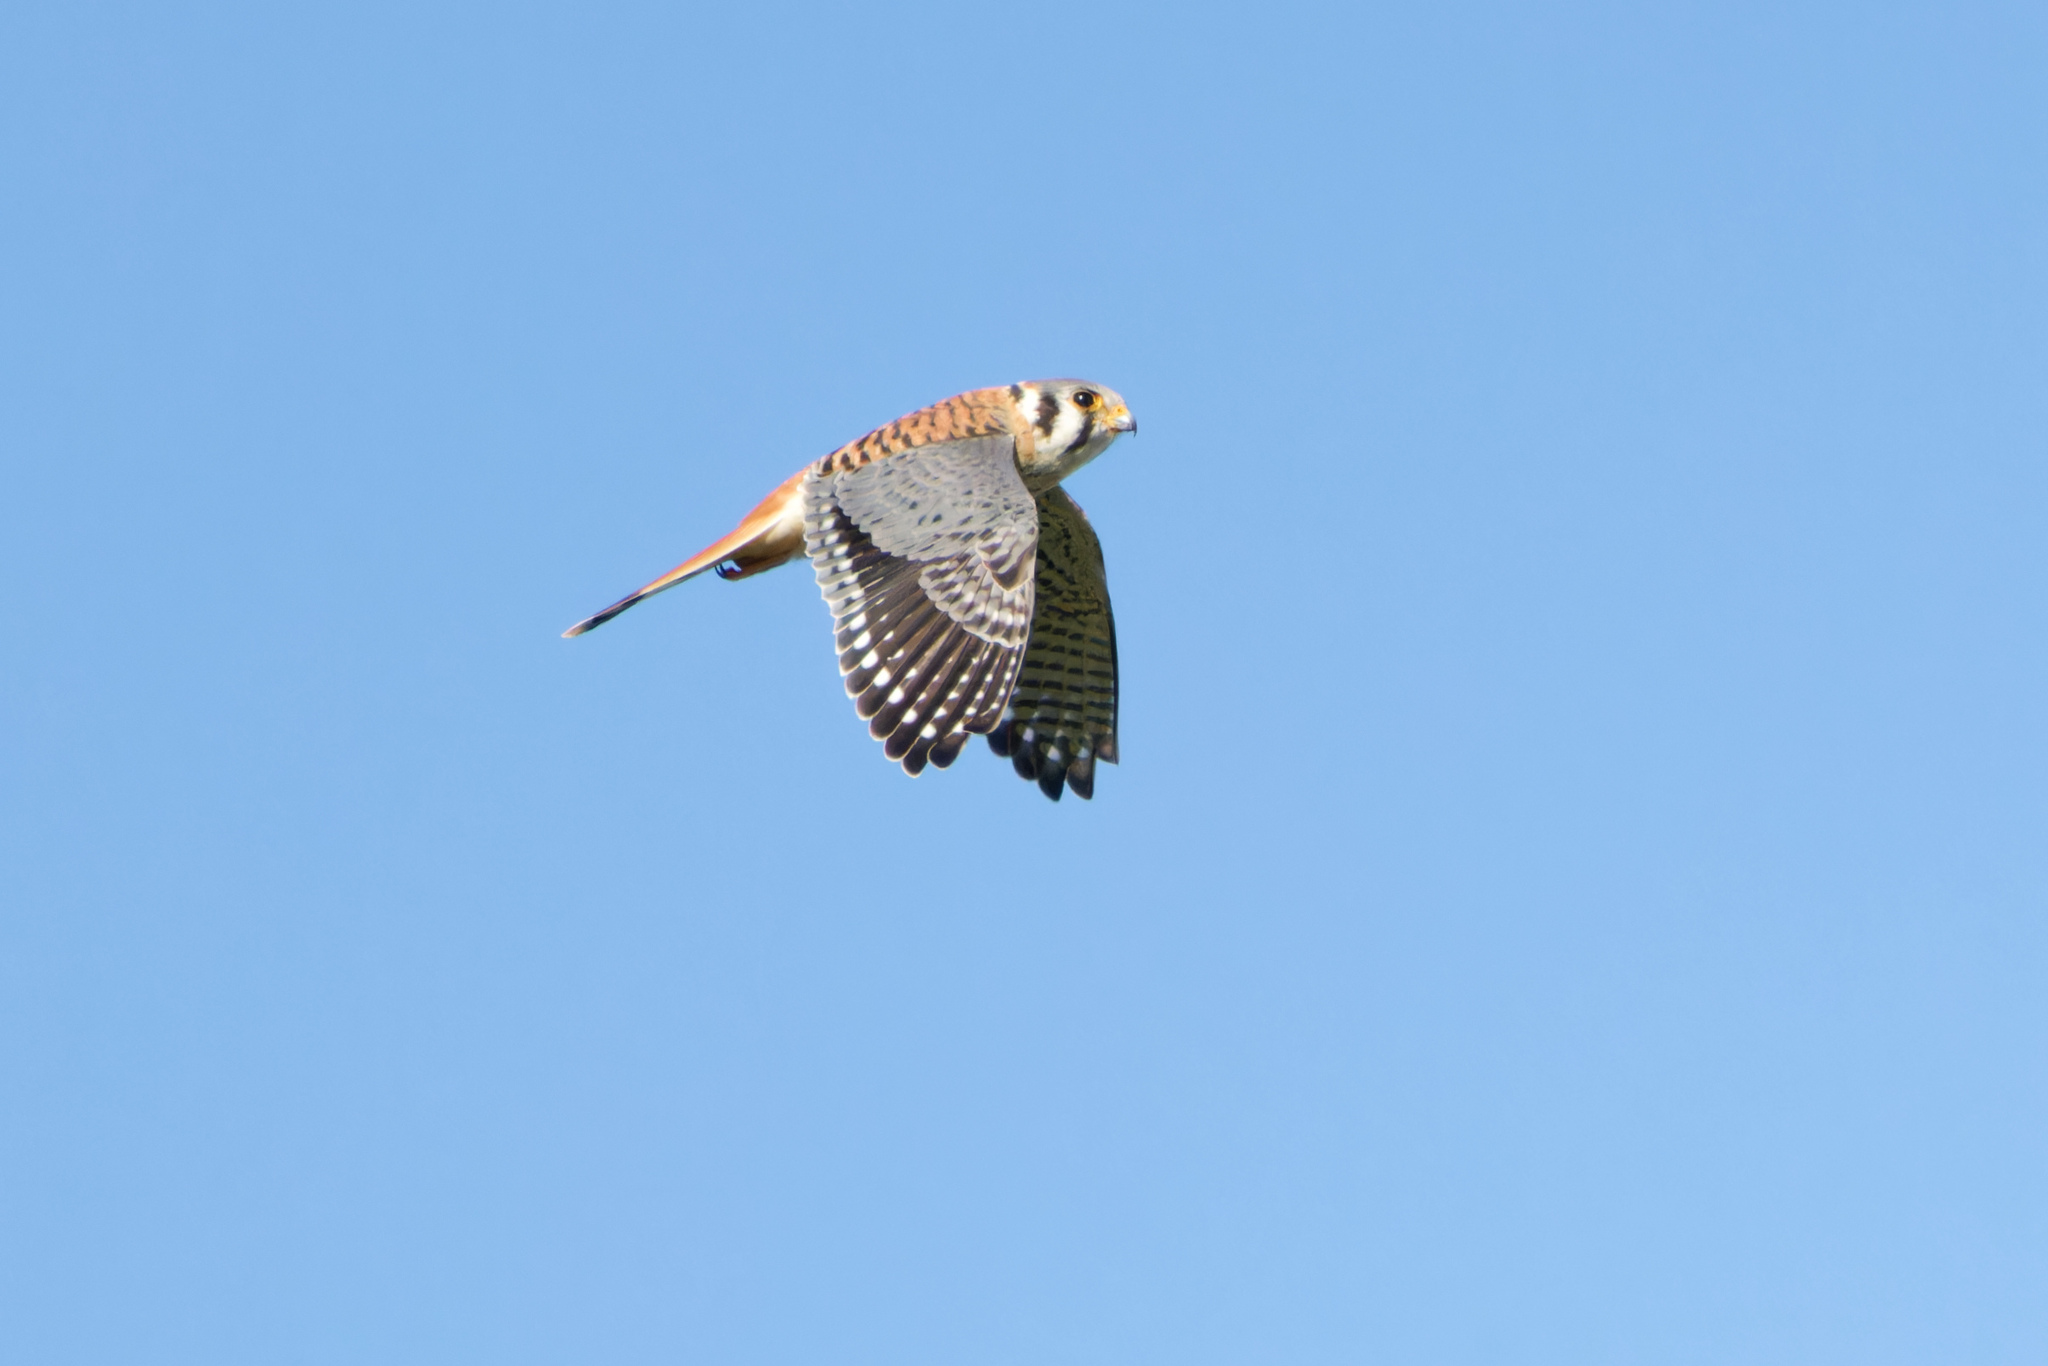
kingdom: Animalia
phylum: Chordata
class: Aves
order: Falconiformes
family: Falconidae
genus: Falco
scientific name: Falco sparverius
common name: American kestrel
